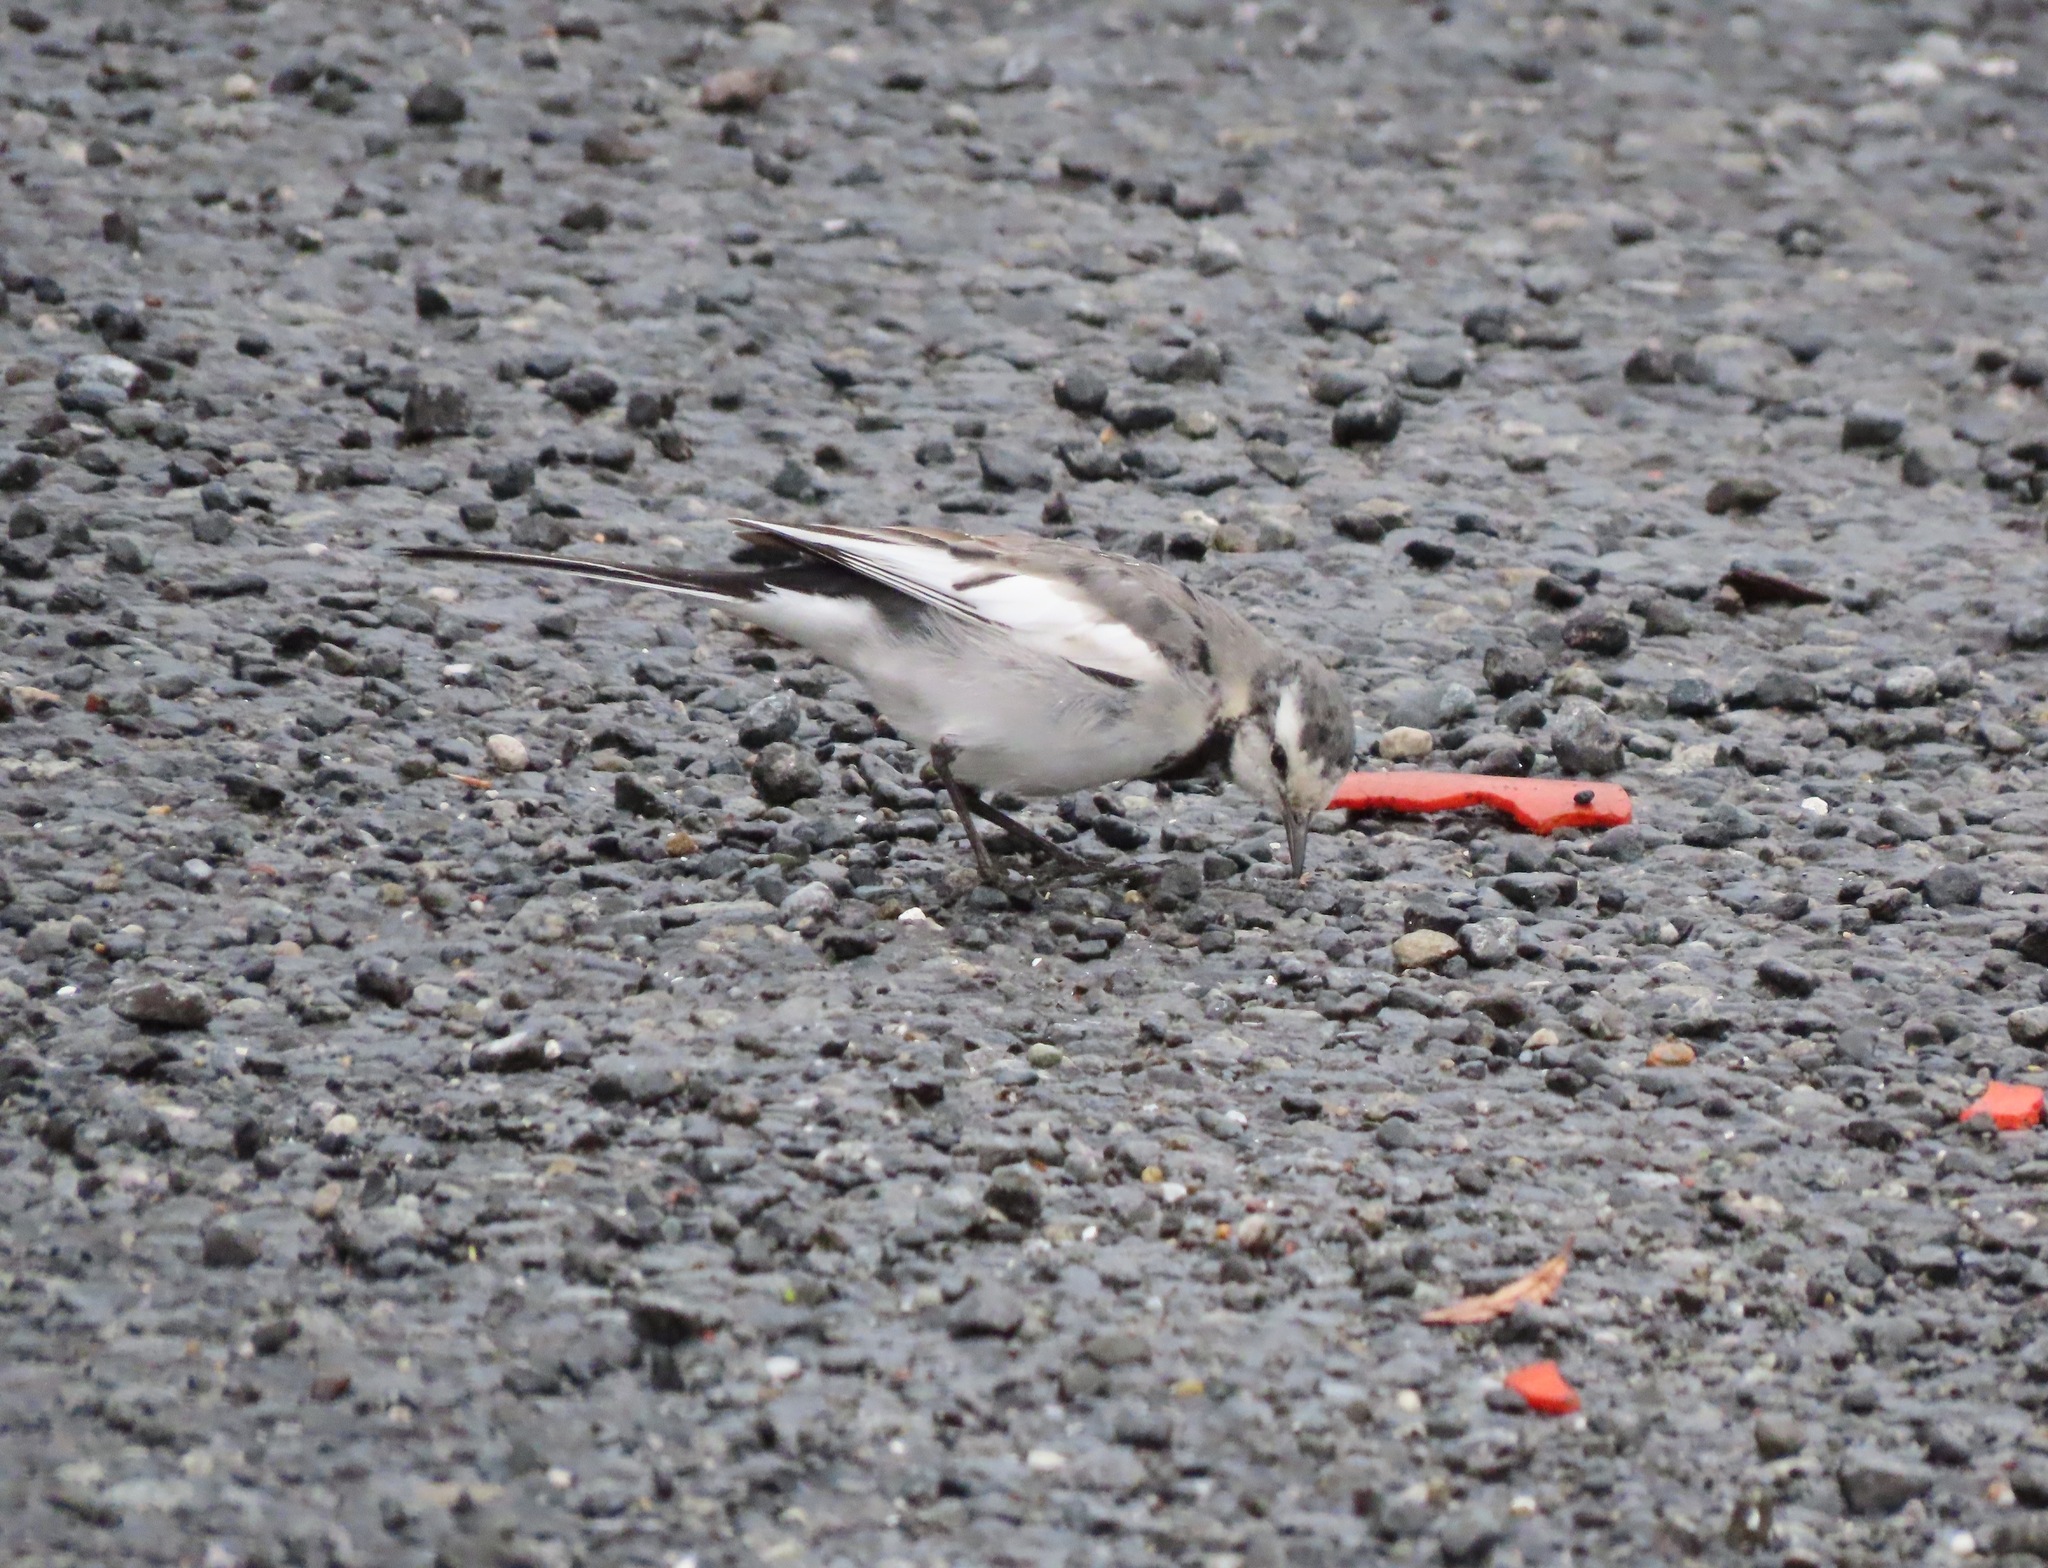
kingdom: Animalia
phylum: Chordata
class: Aves
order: Passeriformes
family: Motacillidae
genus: Motacilla
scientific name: Motacilla alba
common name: White wagtail
